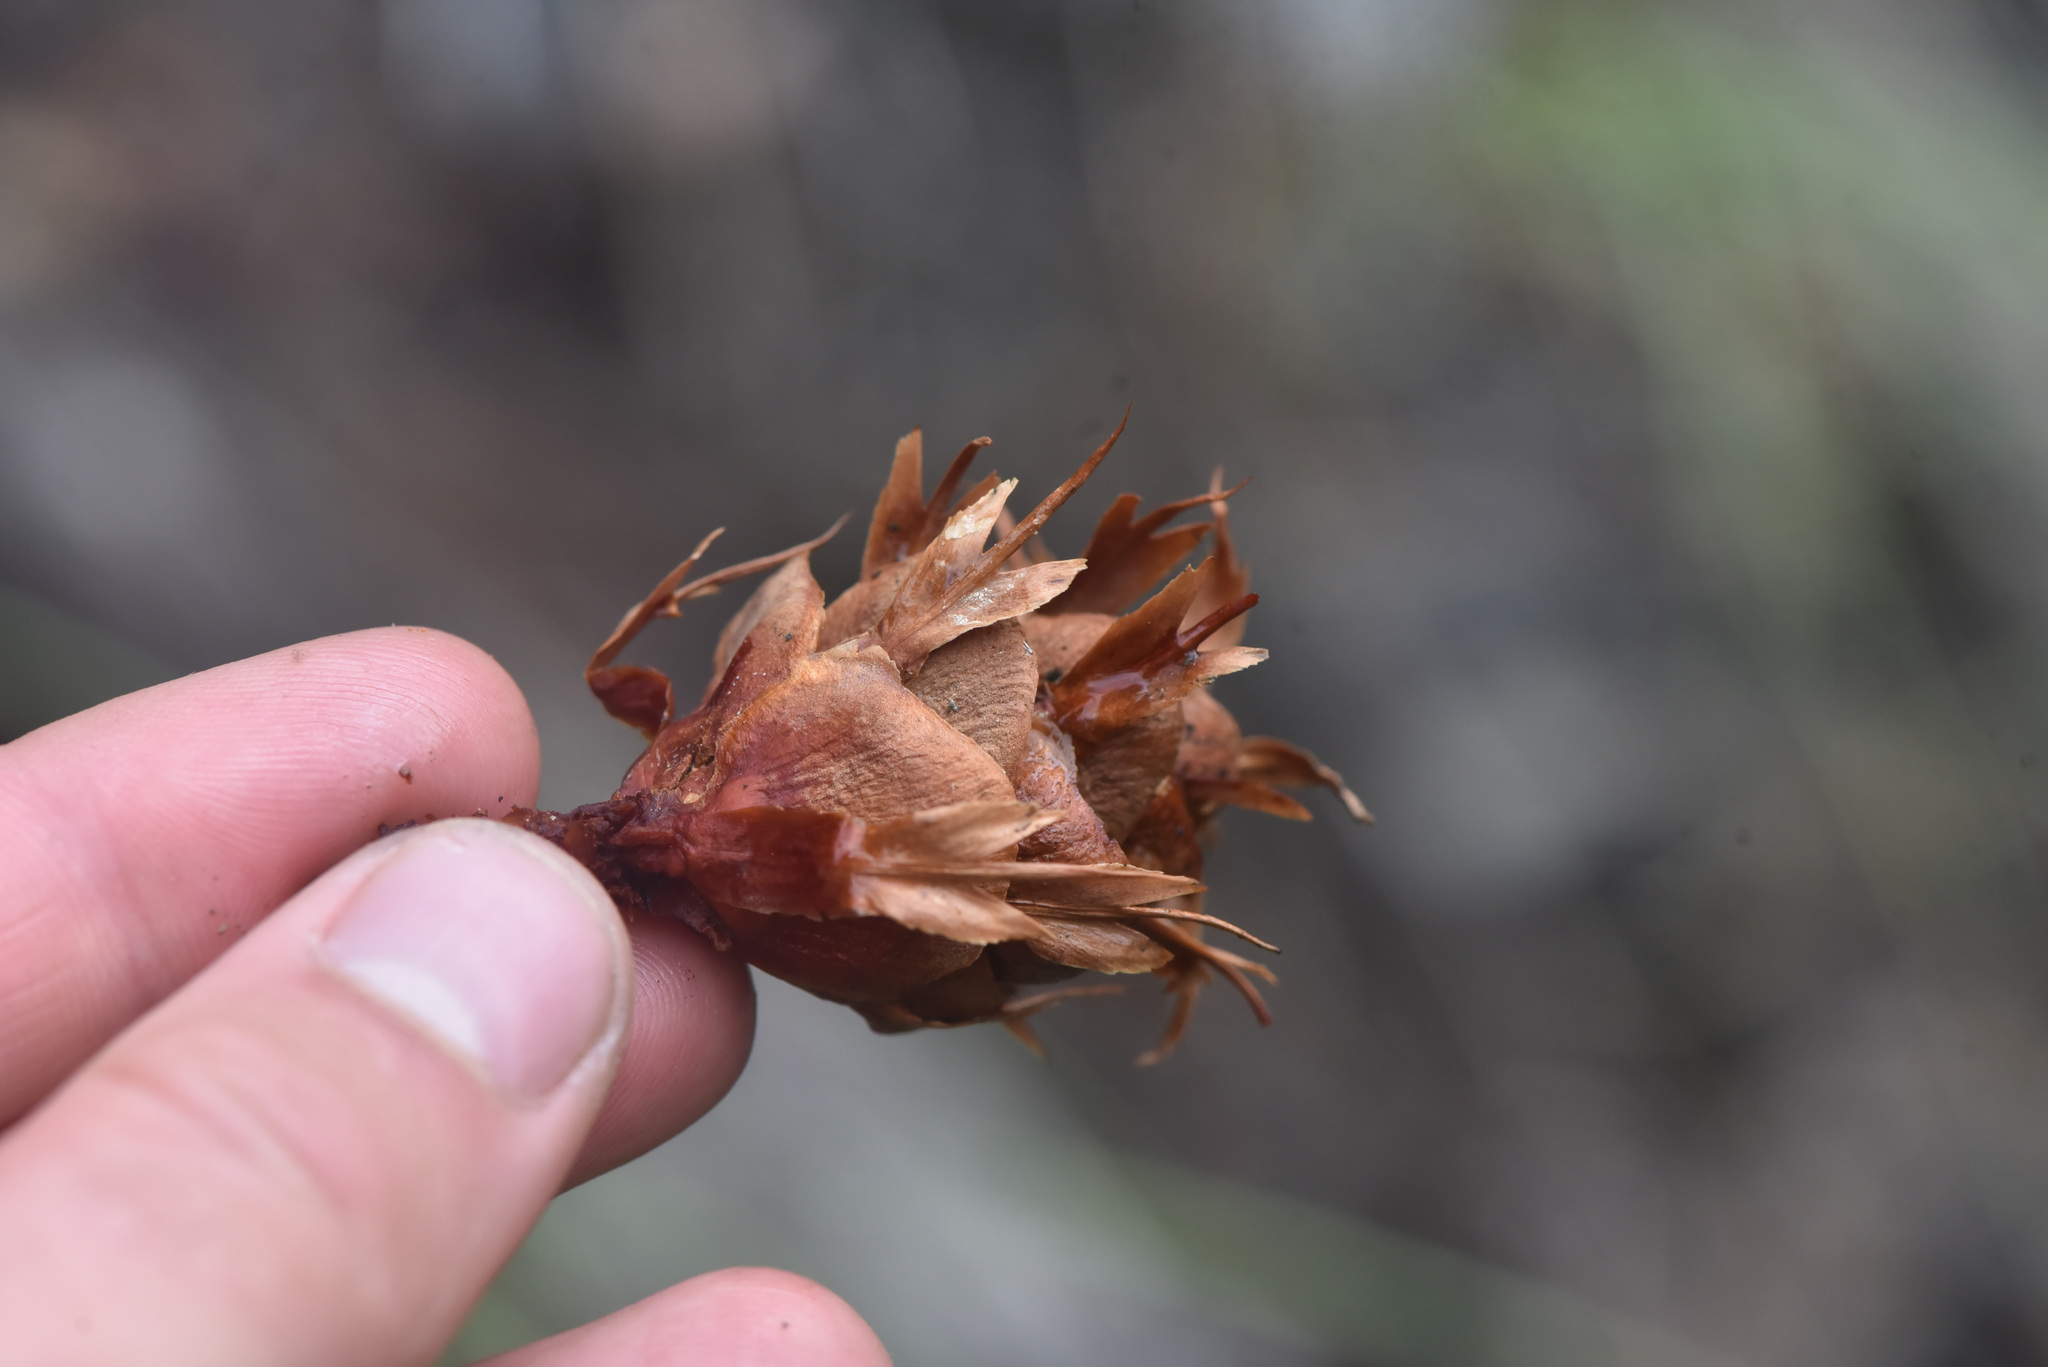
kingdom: Plantae
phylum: Tracheophyta
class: Pinopsida
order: Pinales
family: Pinaceae
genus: Pseudotsuga
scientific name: Pseudotsuga menziesii
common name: Douglas fir
